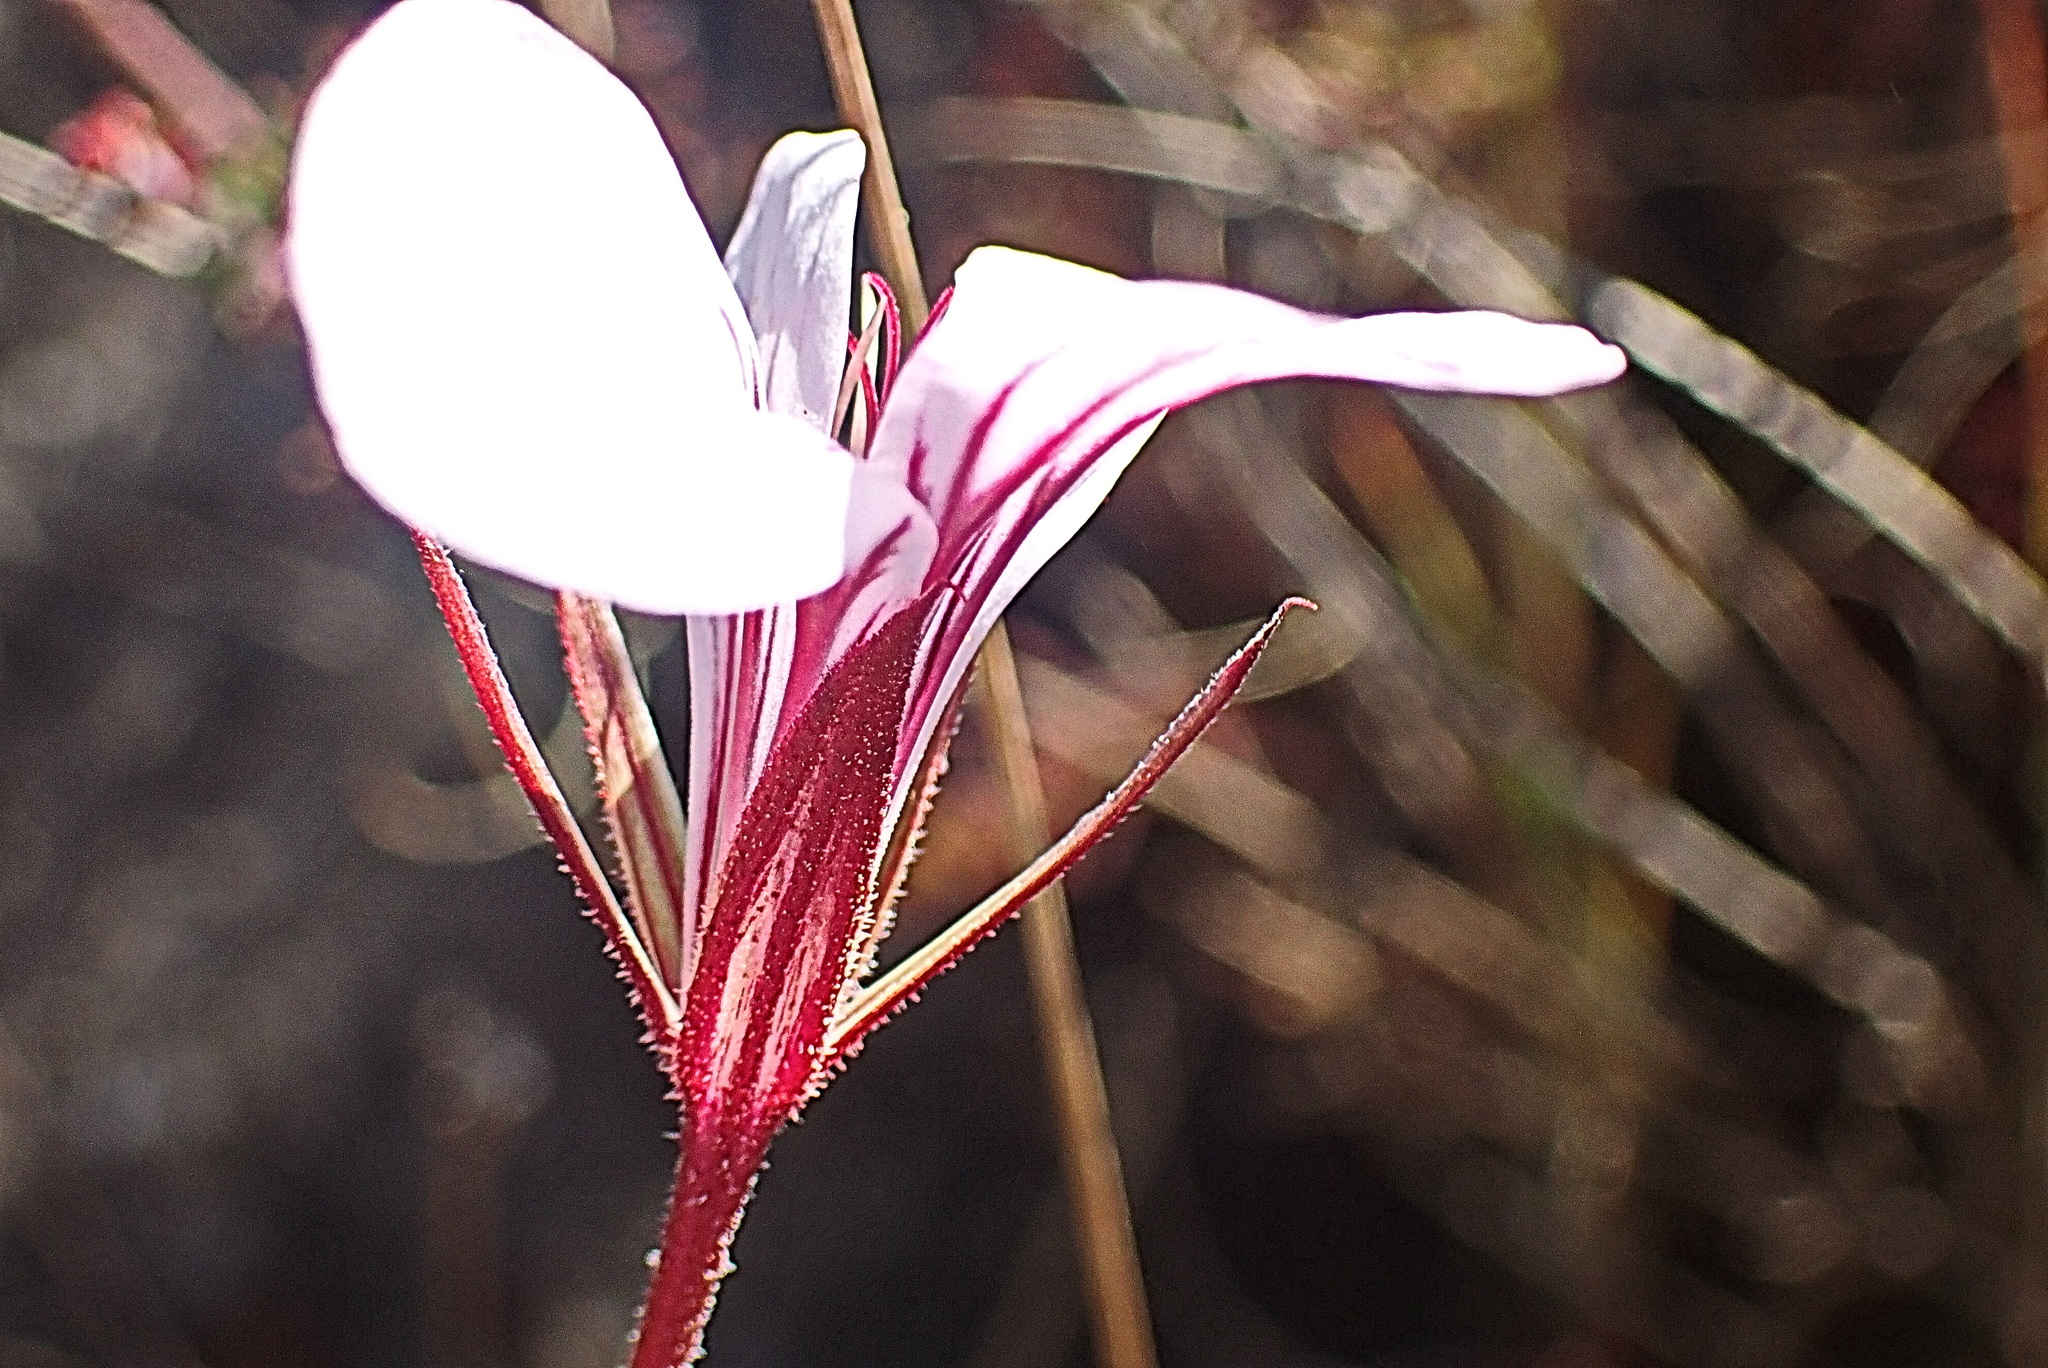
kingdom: Plantae
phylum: Tracheophyta
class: Magnoliopsida
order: Geraniales
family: Geraniaceae
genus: Pelargonium
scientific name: Pelargonium caucalifolium
